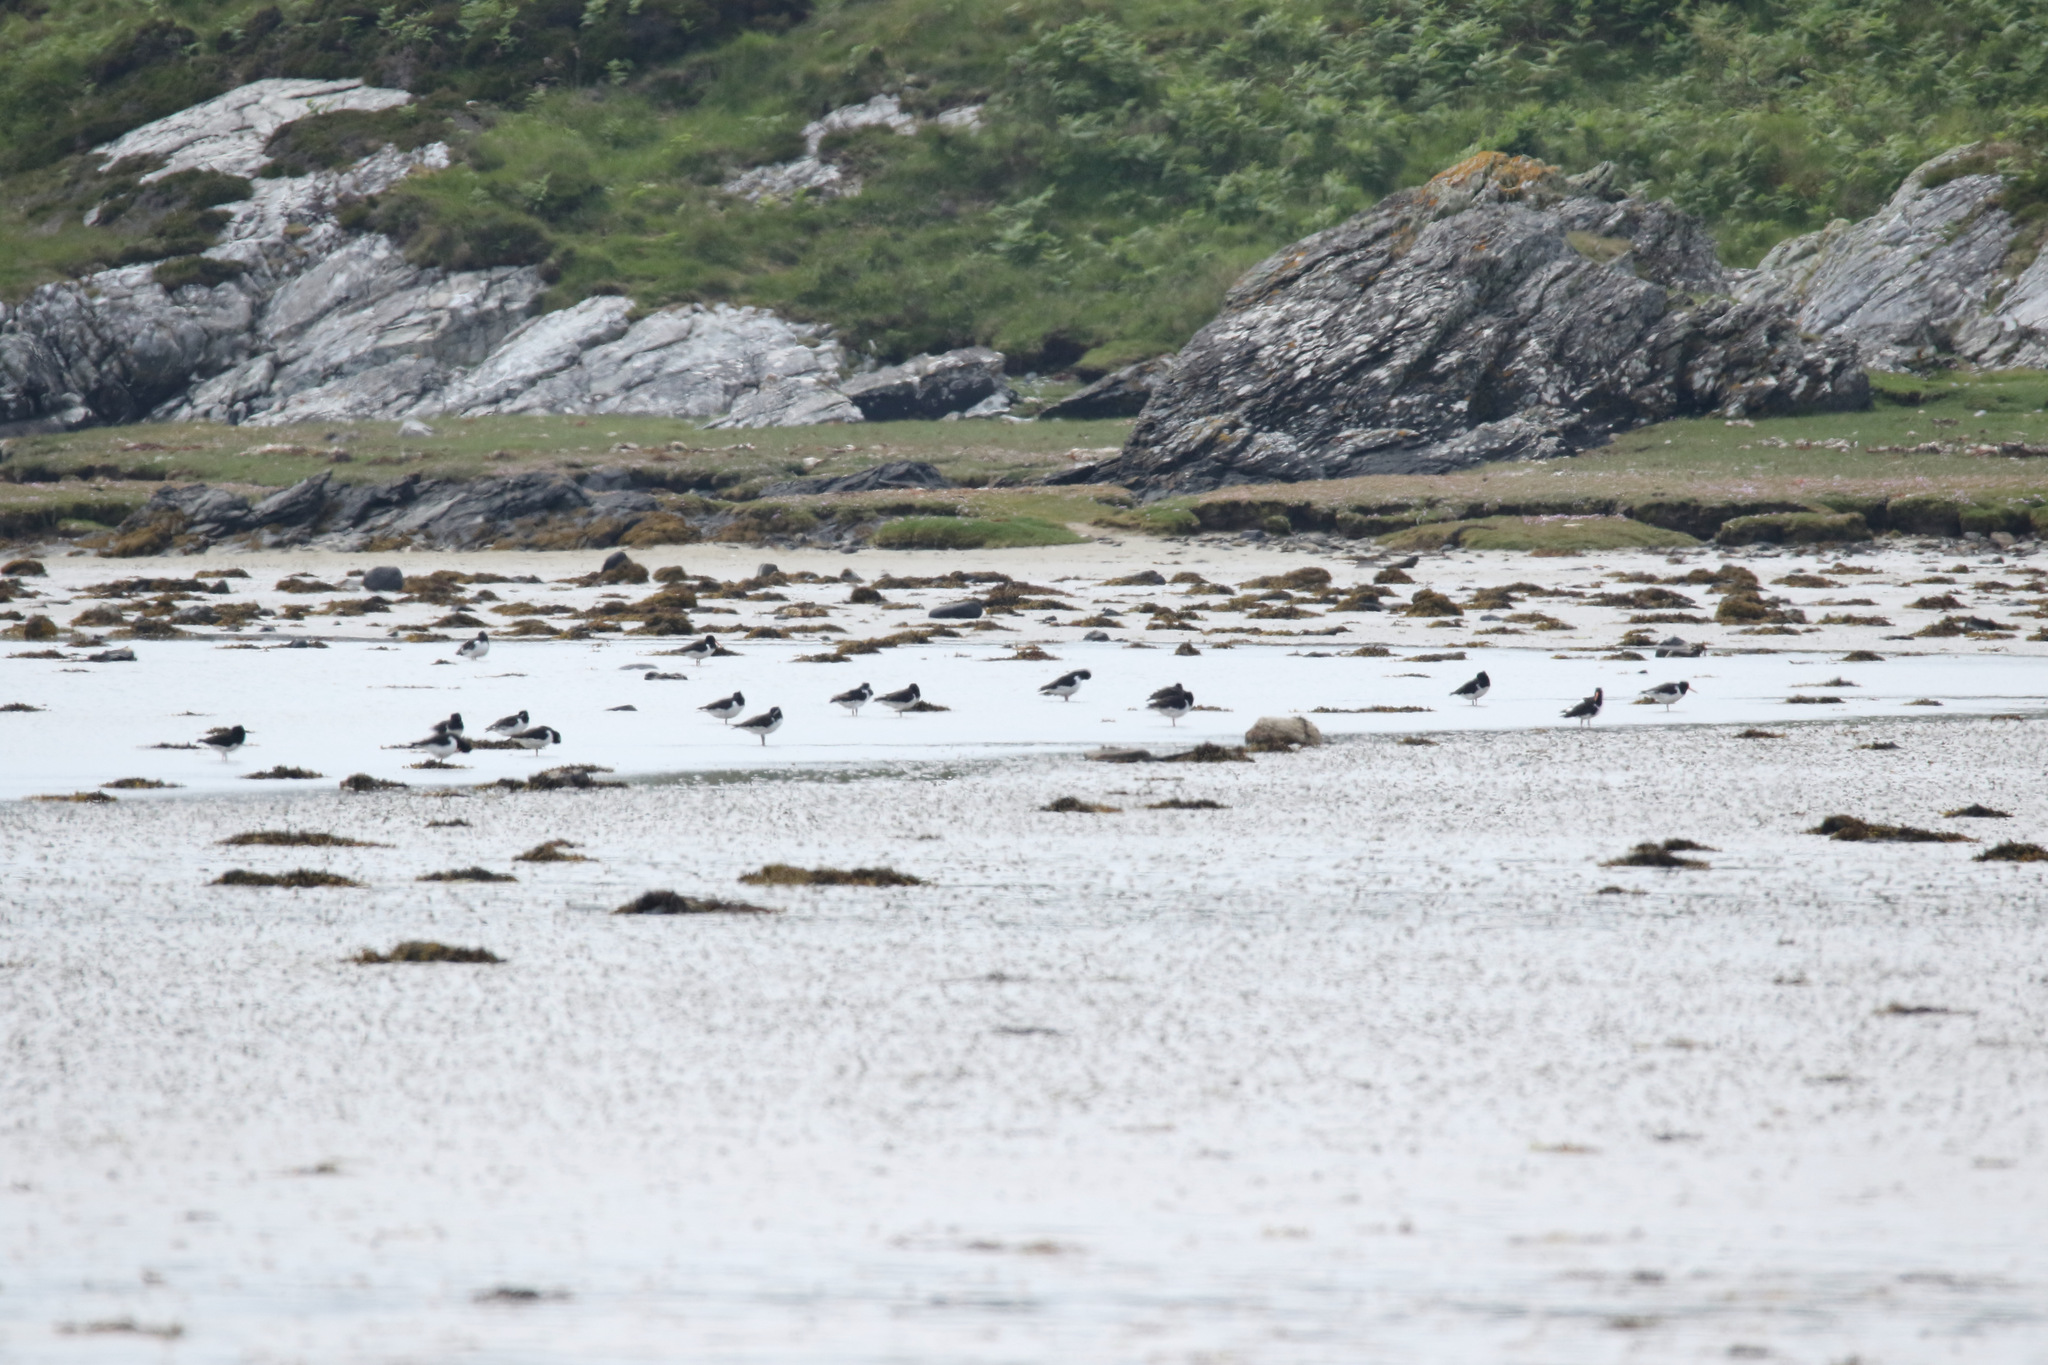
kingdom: Animalia
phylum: Chordata
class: Aves
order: Charadriiformes
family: Haematopodidae
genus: Haematopus
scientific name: Haematopus ostralegus
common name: Eurasian oystercatcher
